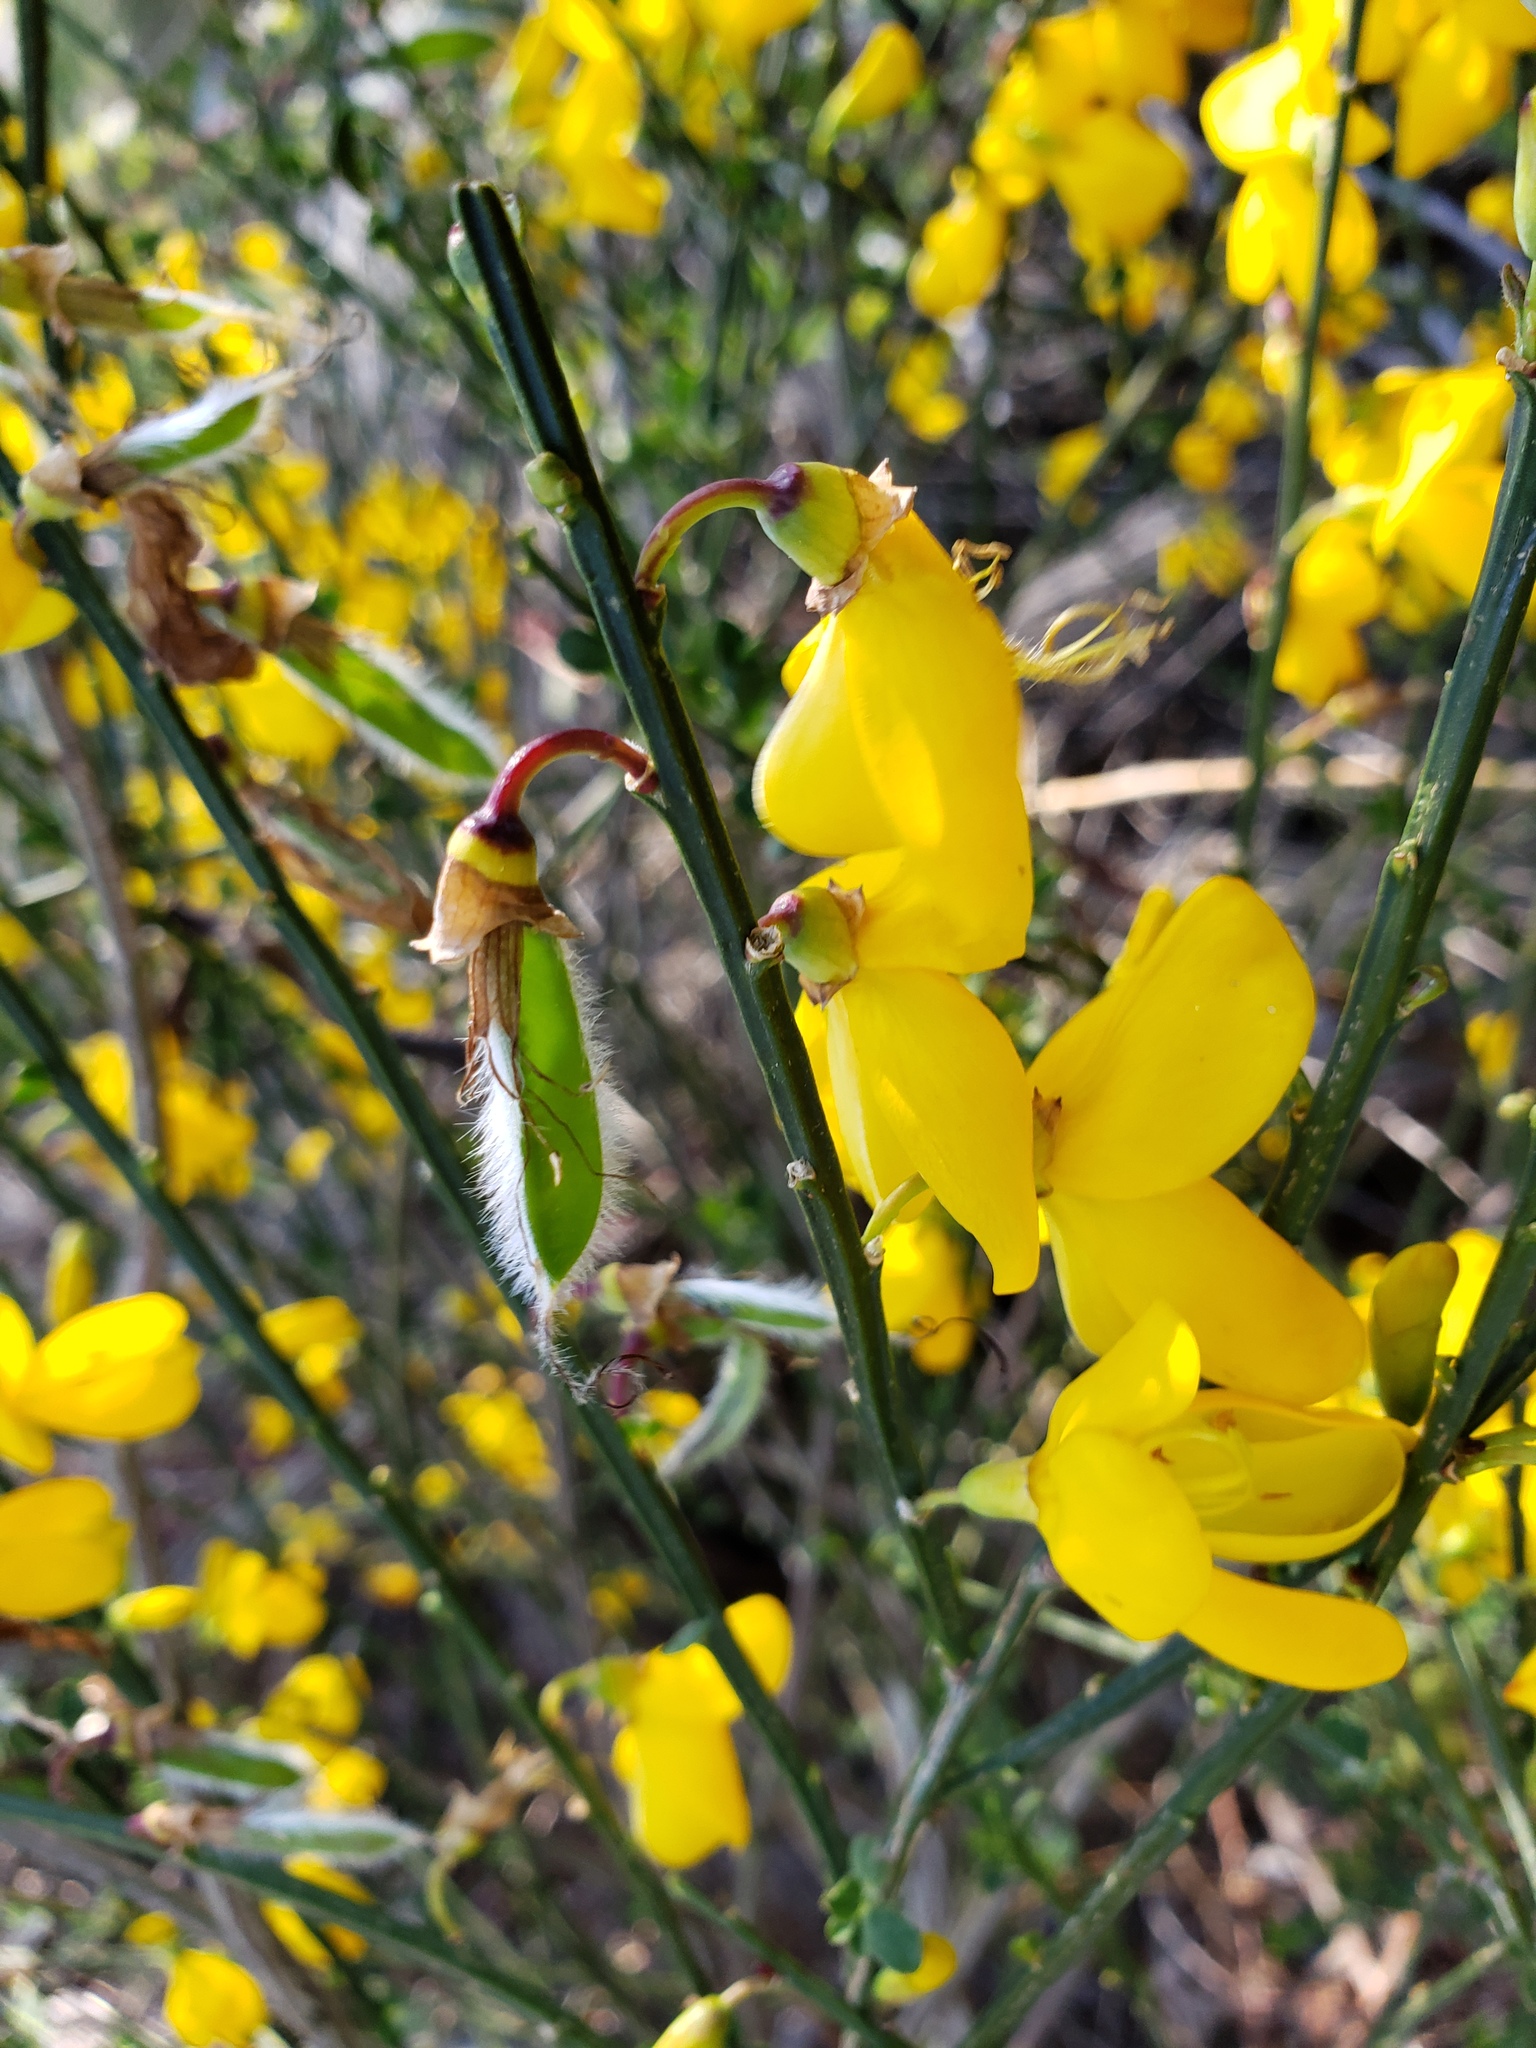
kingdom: Plantae
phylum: Tracheophyta
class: Magnoliopsida
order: Fabales
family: Fabaceae
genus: Cytisus
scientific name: Cytisus scoparius
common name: Scotch broom
